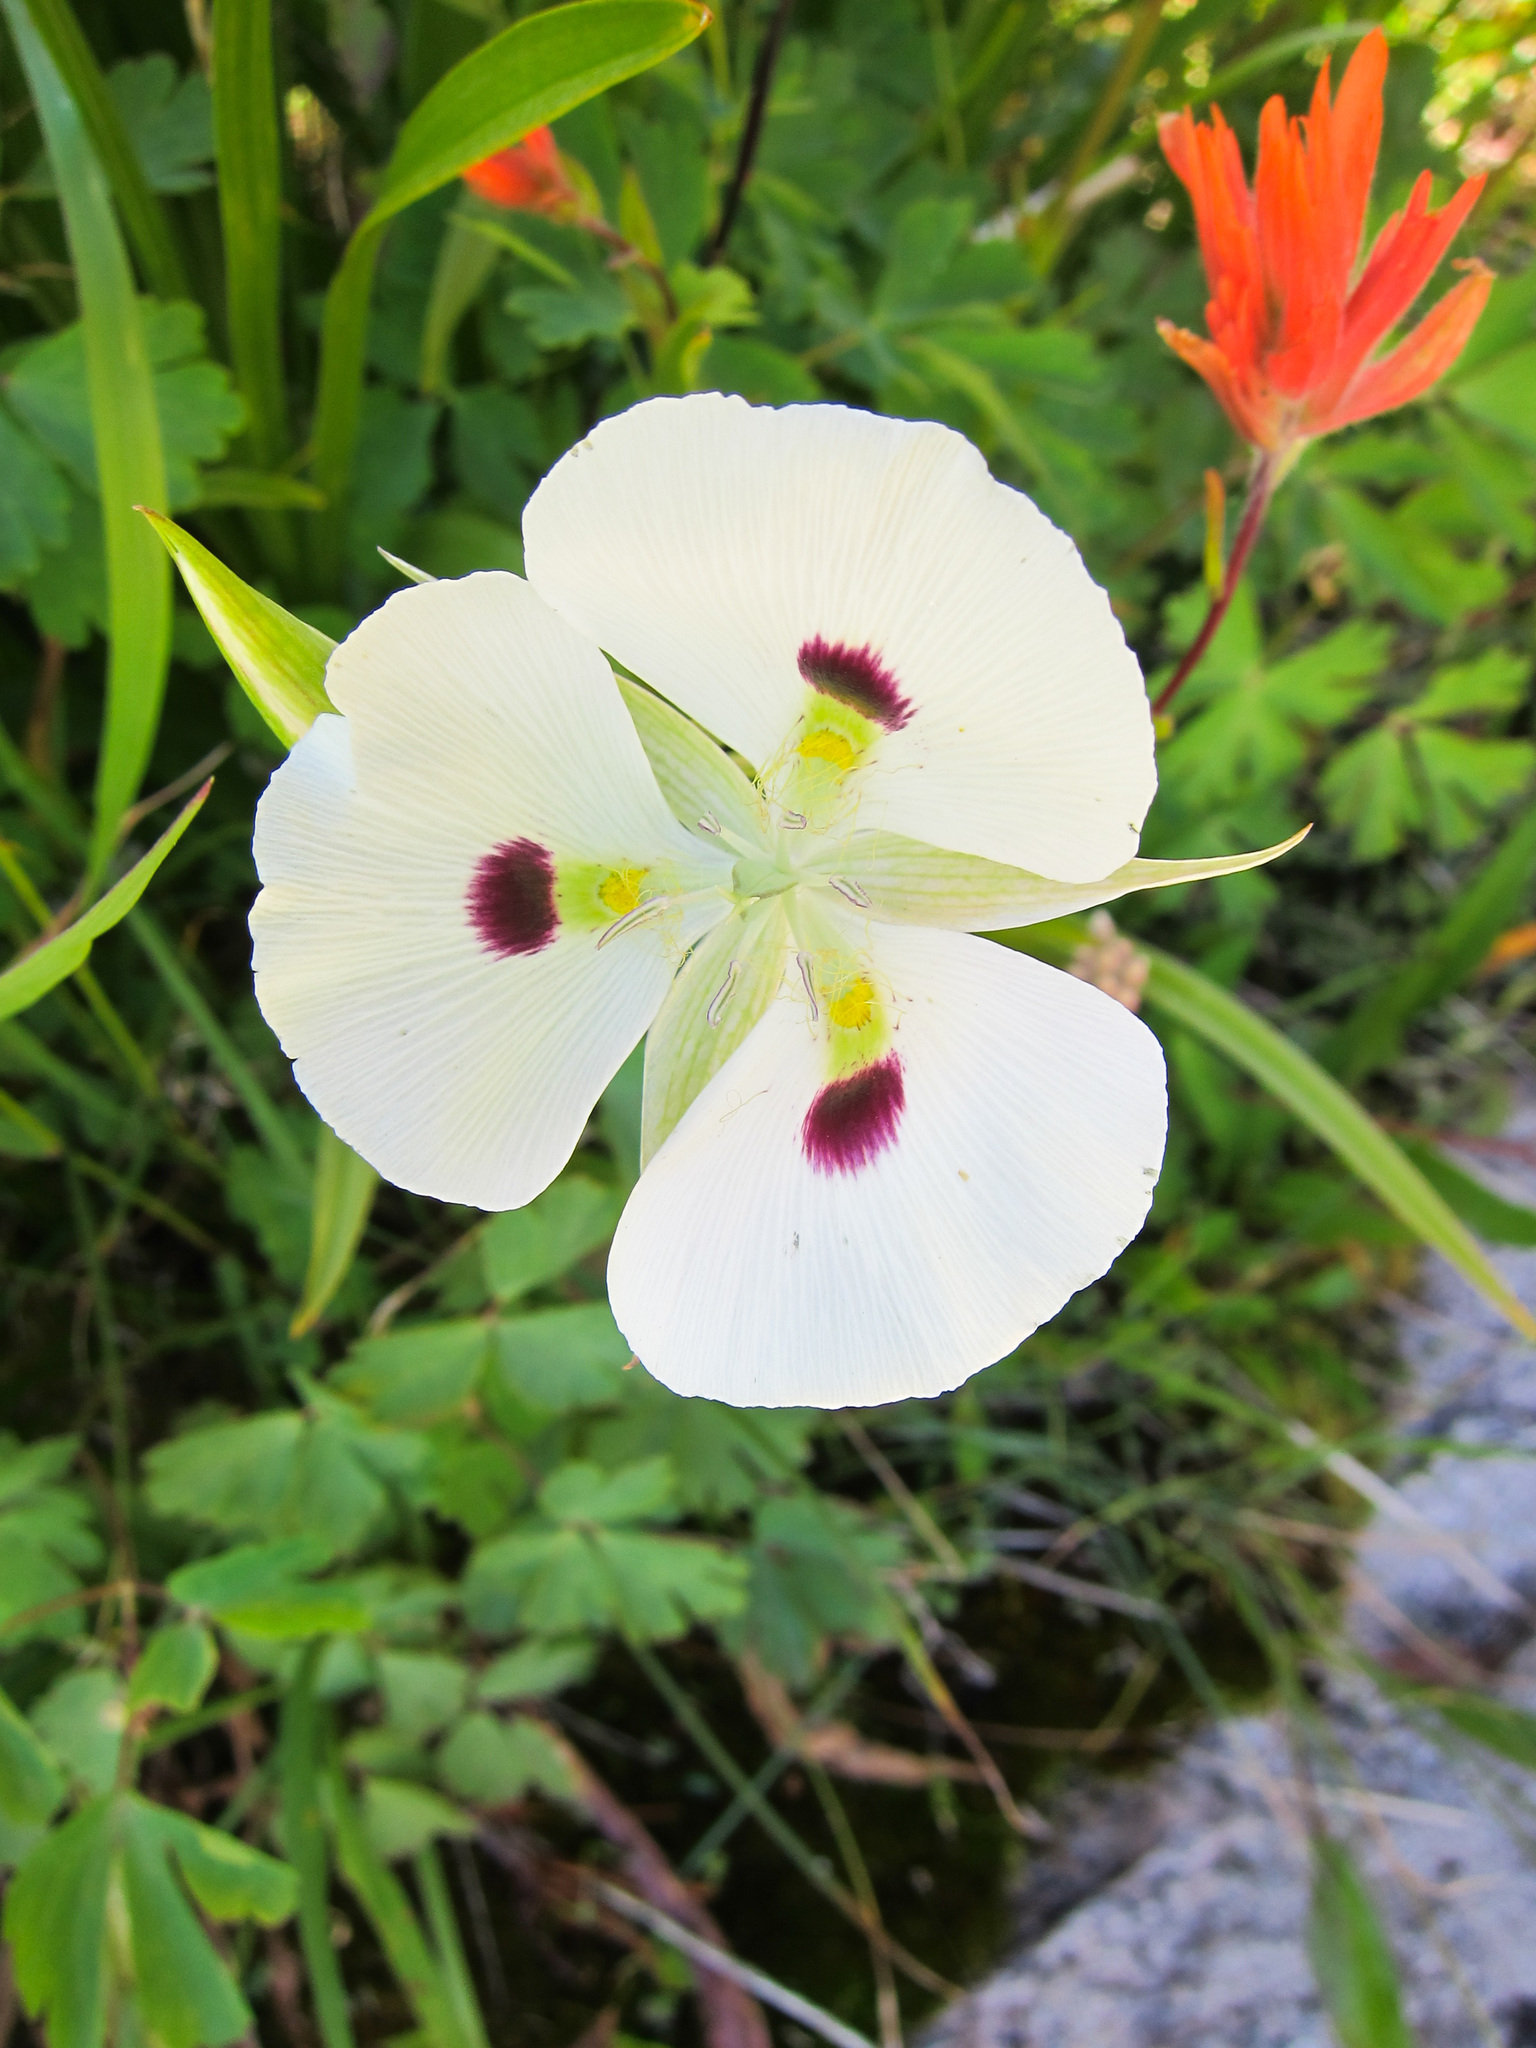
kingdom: Plantae
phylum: Tracheophyta
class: Liliopsida
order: Liliales
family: Liliaceae
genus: Calochortus
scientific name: Calochortus eurycarpus
